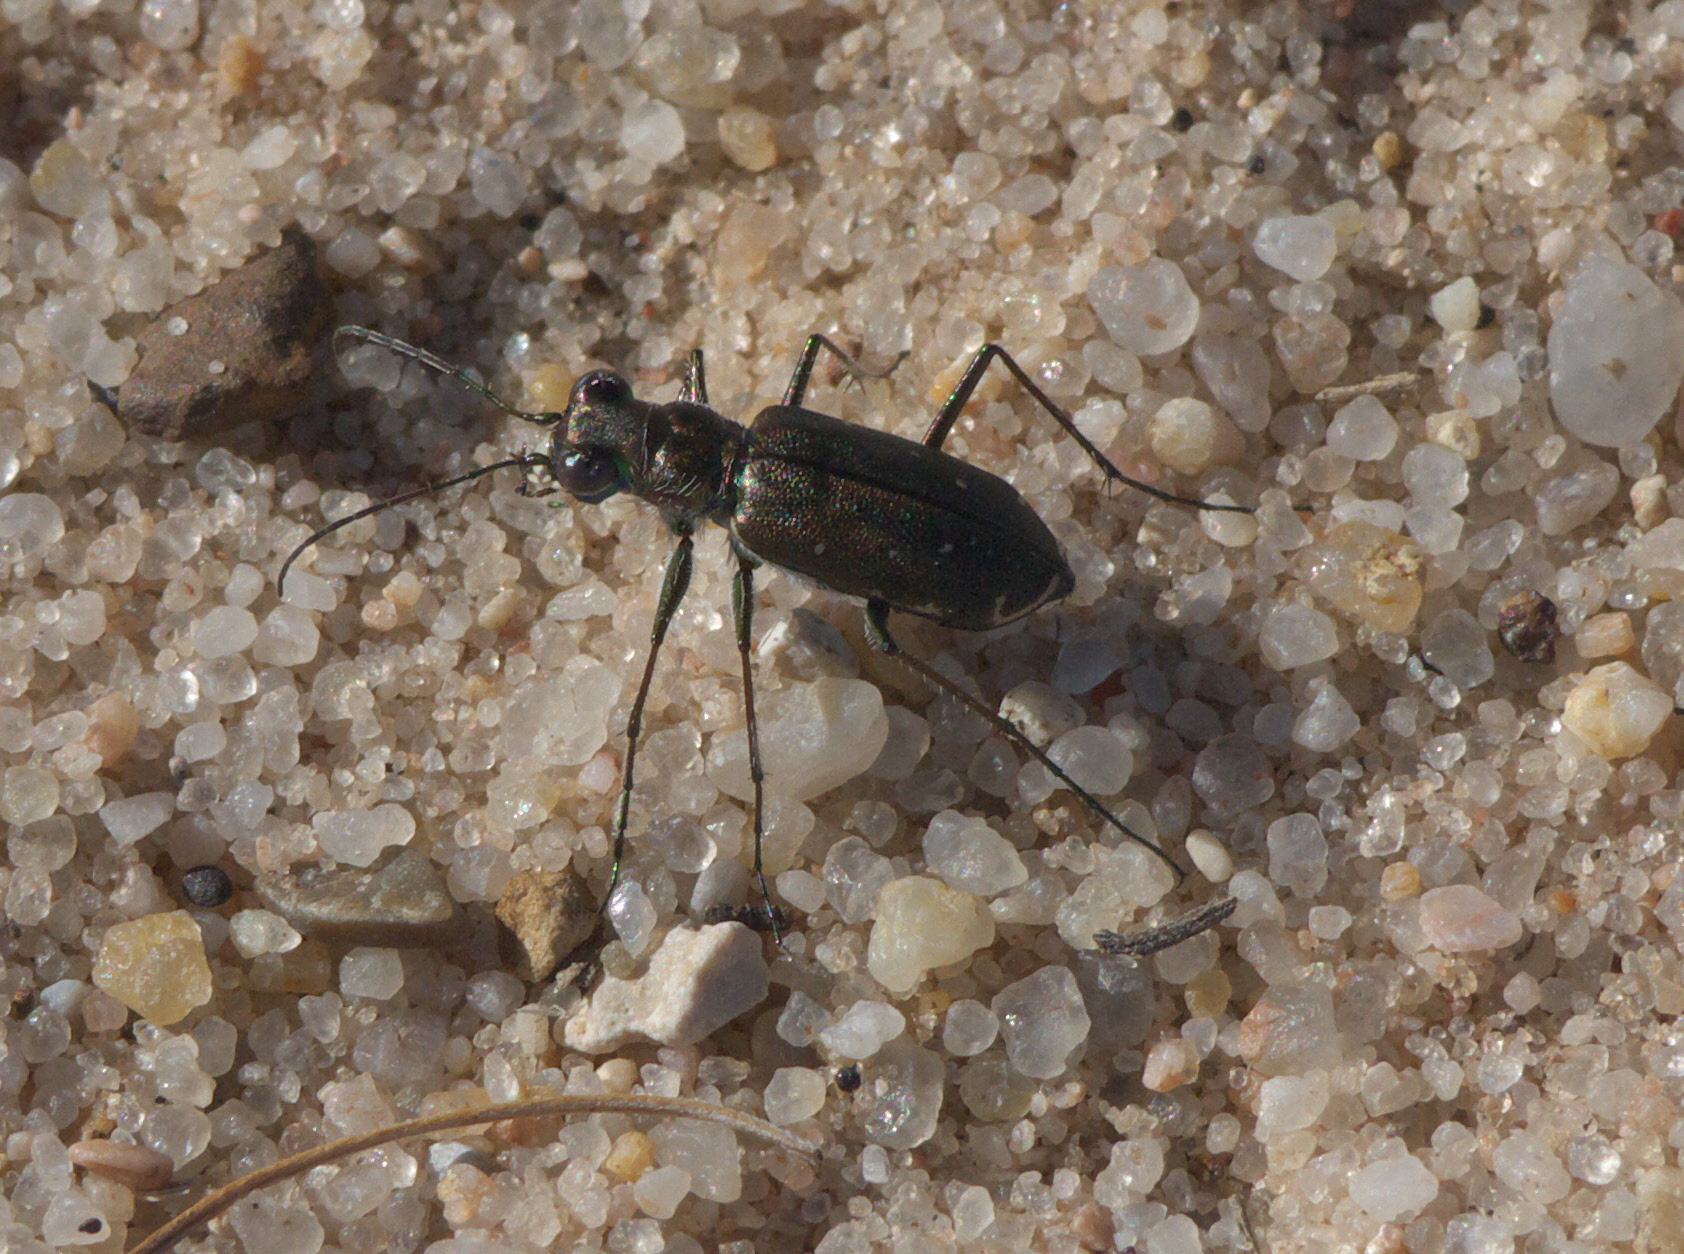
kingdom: Animalia
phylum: Arthropoda
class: Insecta
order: Coleoptera
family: Carabidae
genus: Cicindela
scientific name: Cicindela punctulata
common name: Punctured tiger beetle
